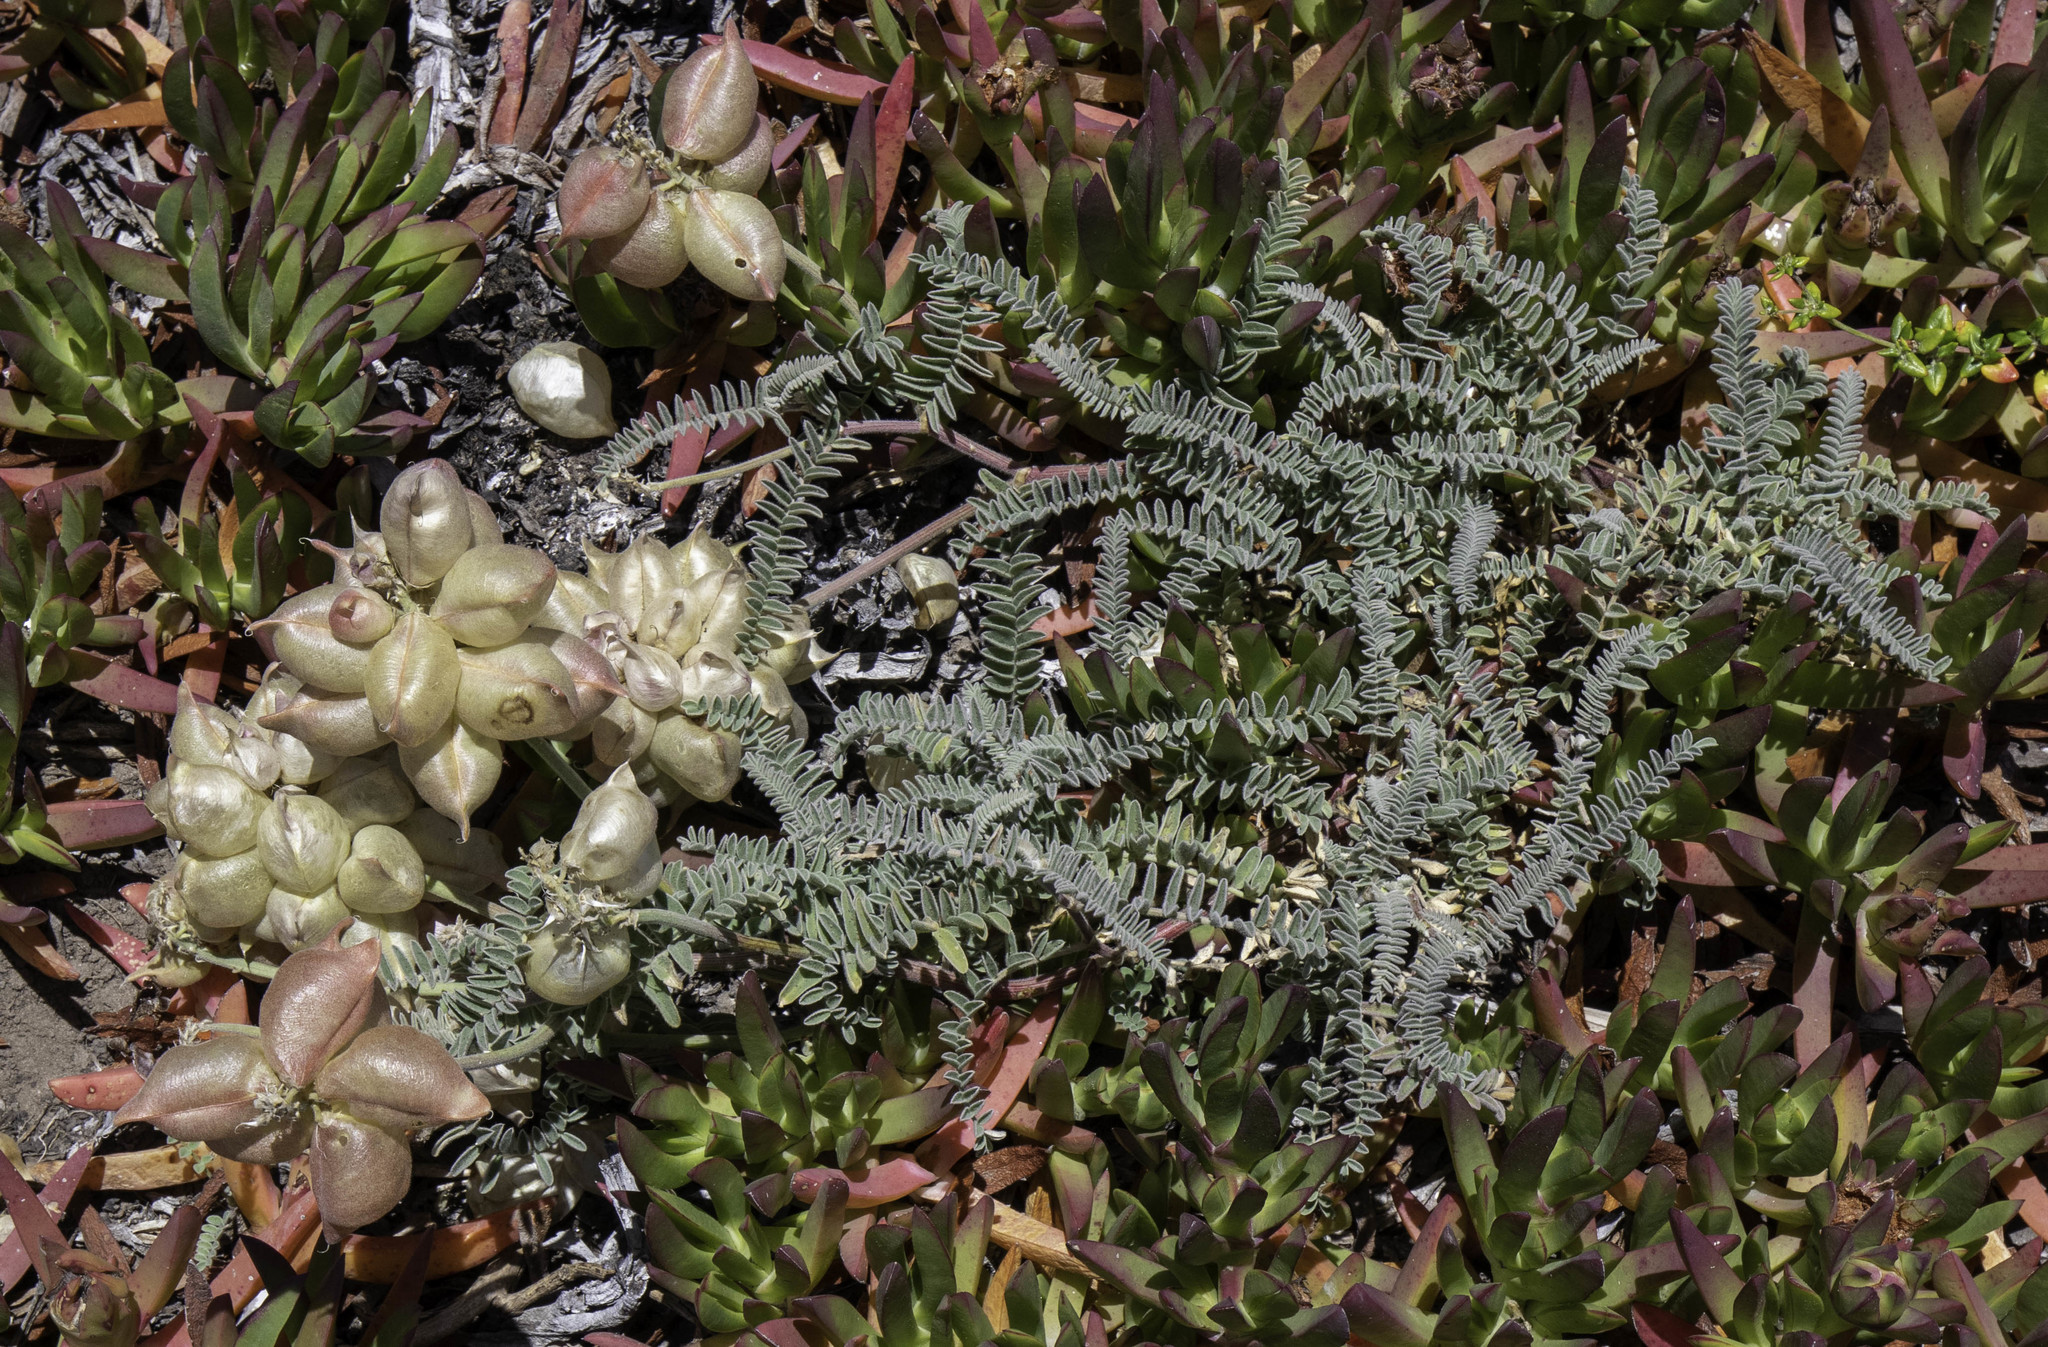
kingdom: Plantae
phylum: Tracheophyta
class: Magnoliopsida
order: Fabales
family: Fabaceae
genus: Astragalus
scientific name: Astragalus nuttallii
